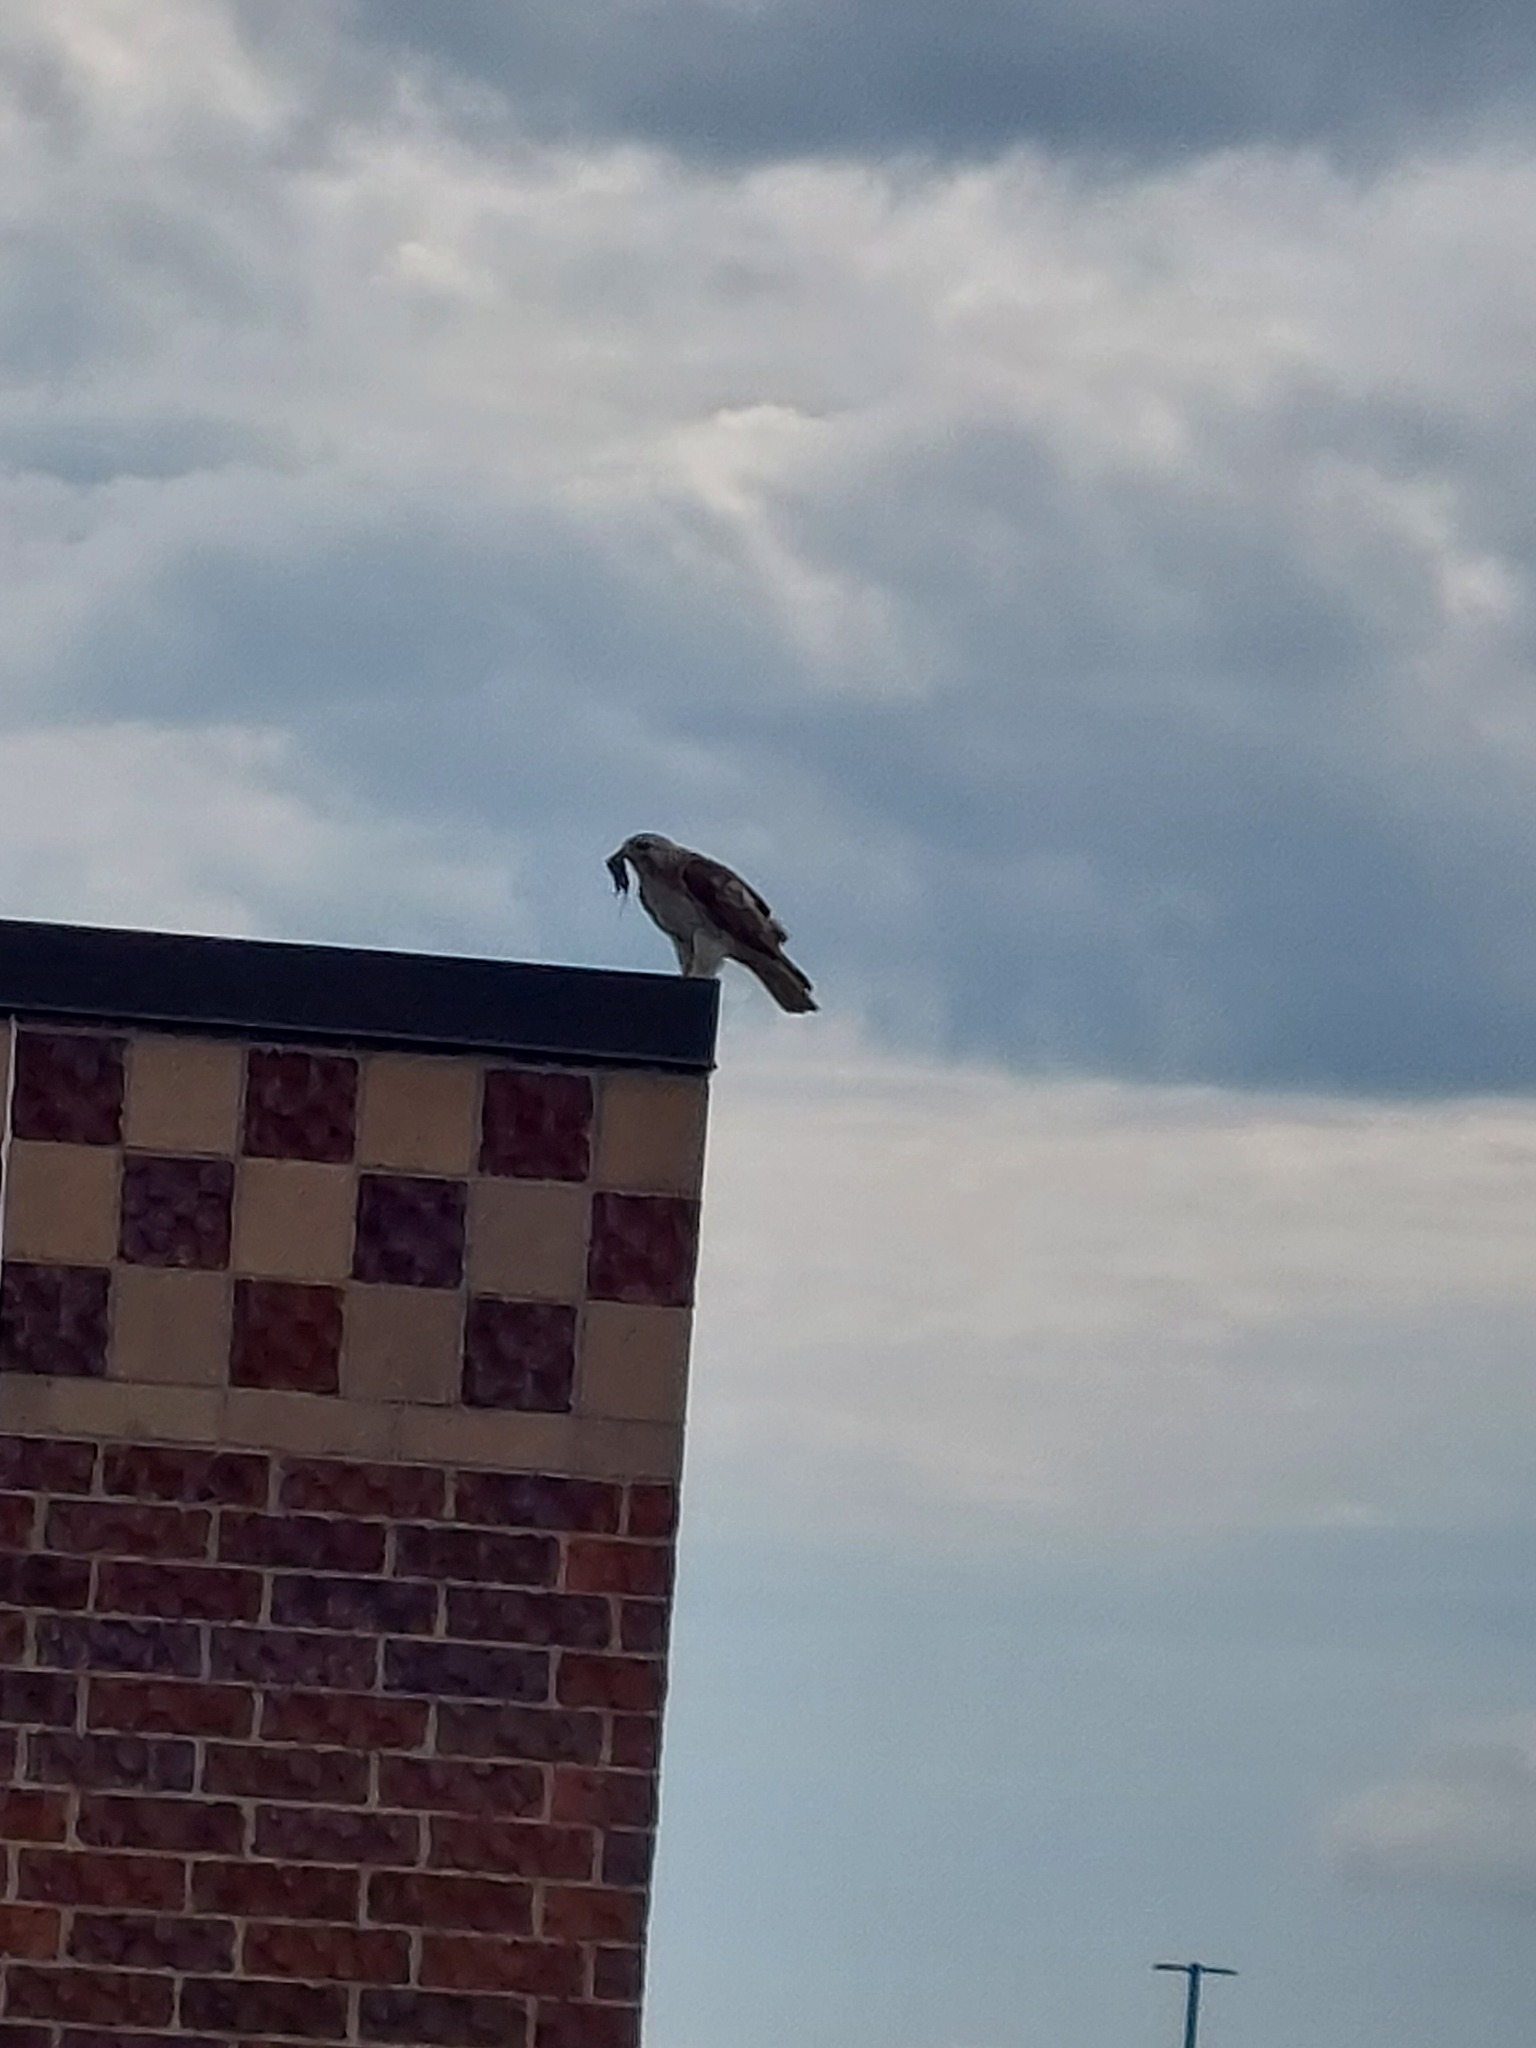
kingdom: Animalia
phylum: Chordata
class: Aves
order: Accipitriformes
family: Accipitridae
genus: Buteo
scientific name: Buteo jamaicensis
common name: Red-tailed hawk
